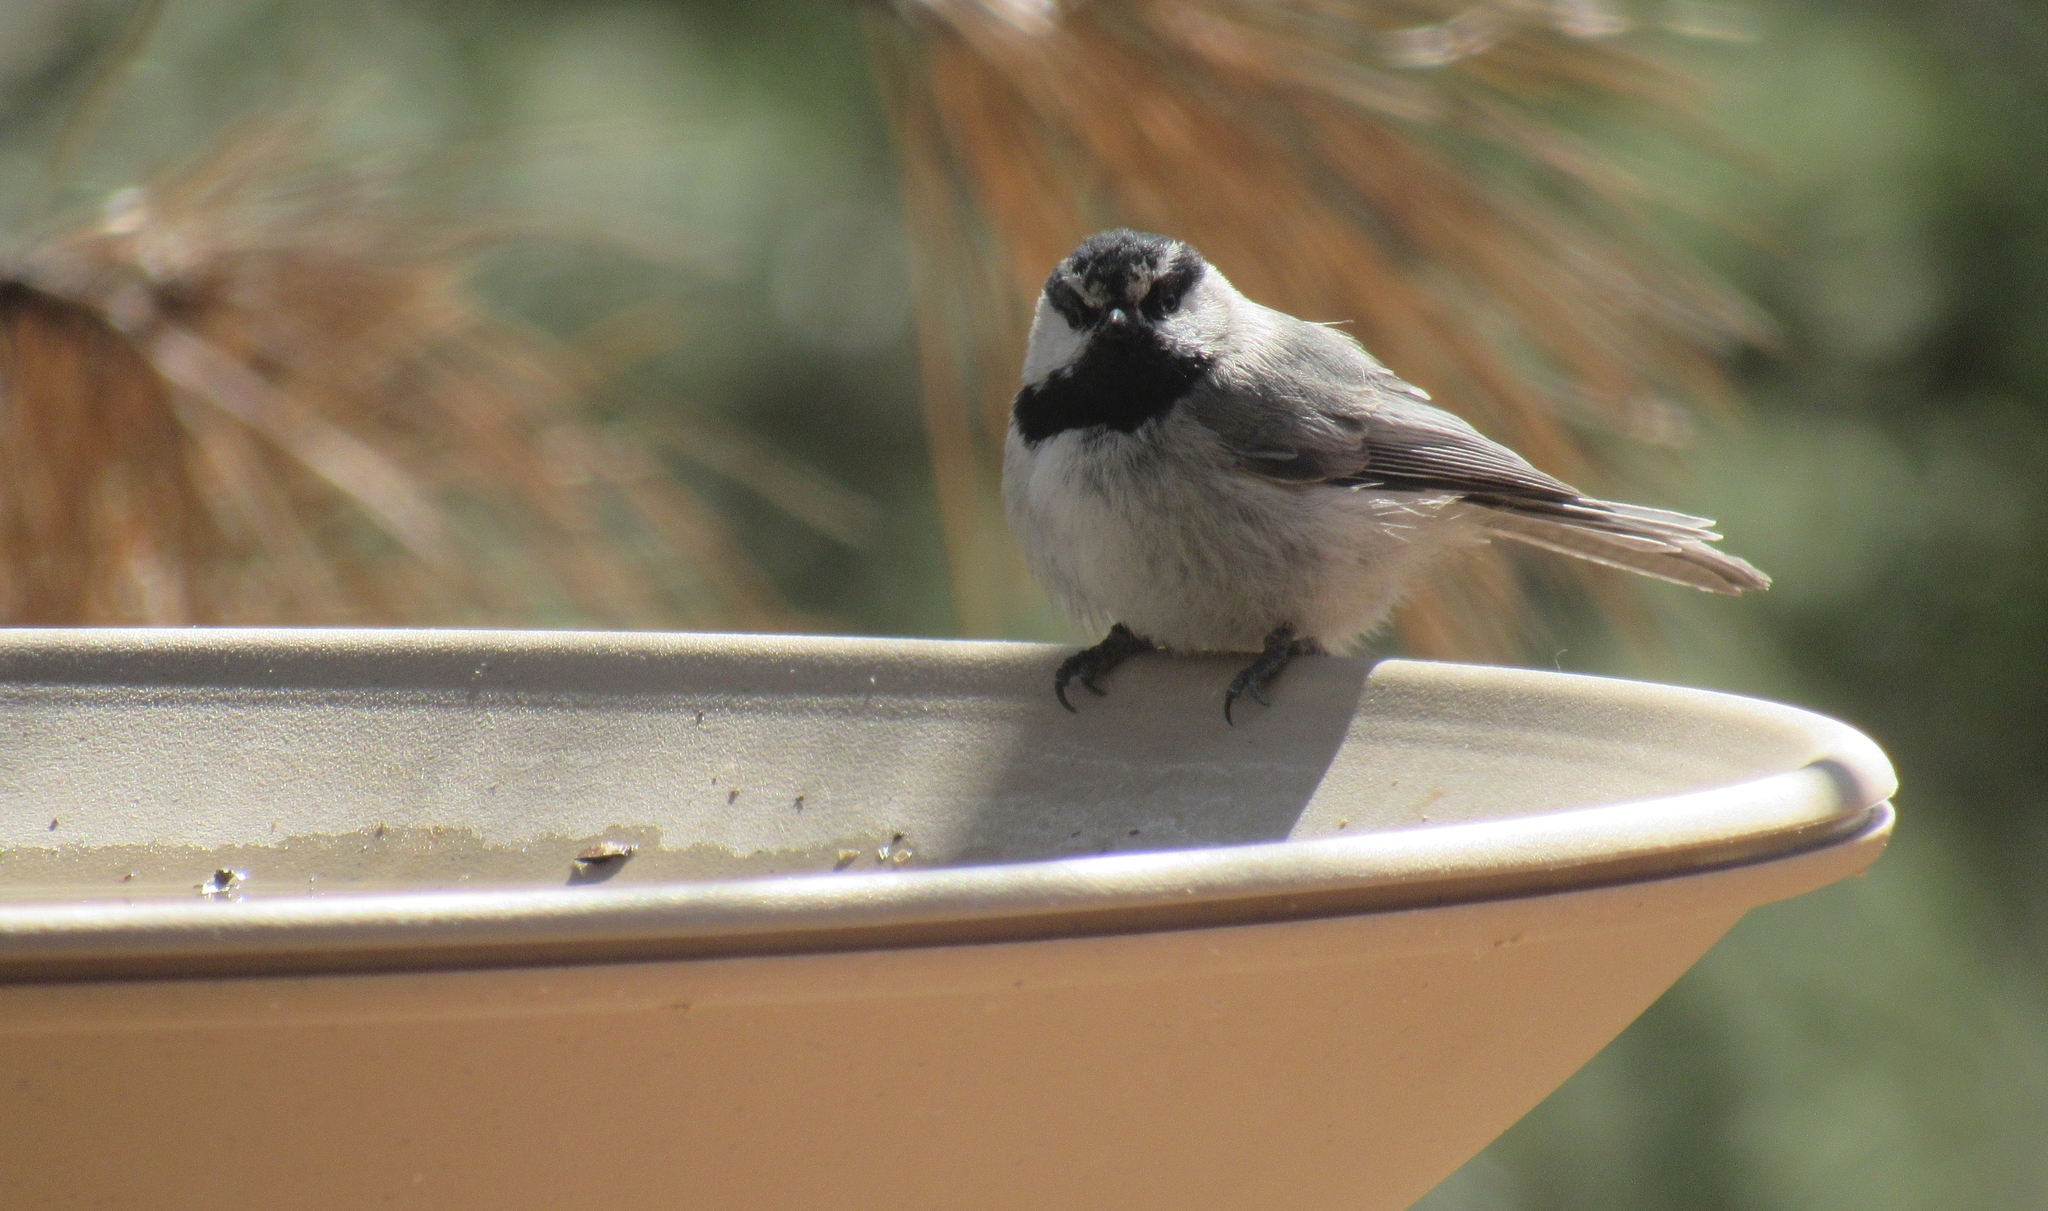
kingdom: Animalia
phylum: Chordata
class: Aves
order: Passeriformes
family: Paridae
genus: Poecile
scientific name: Poecile gambeli
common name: Mountain chickadee
